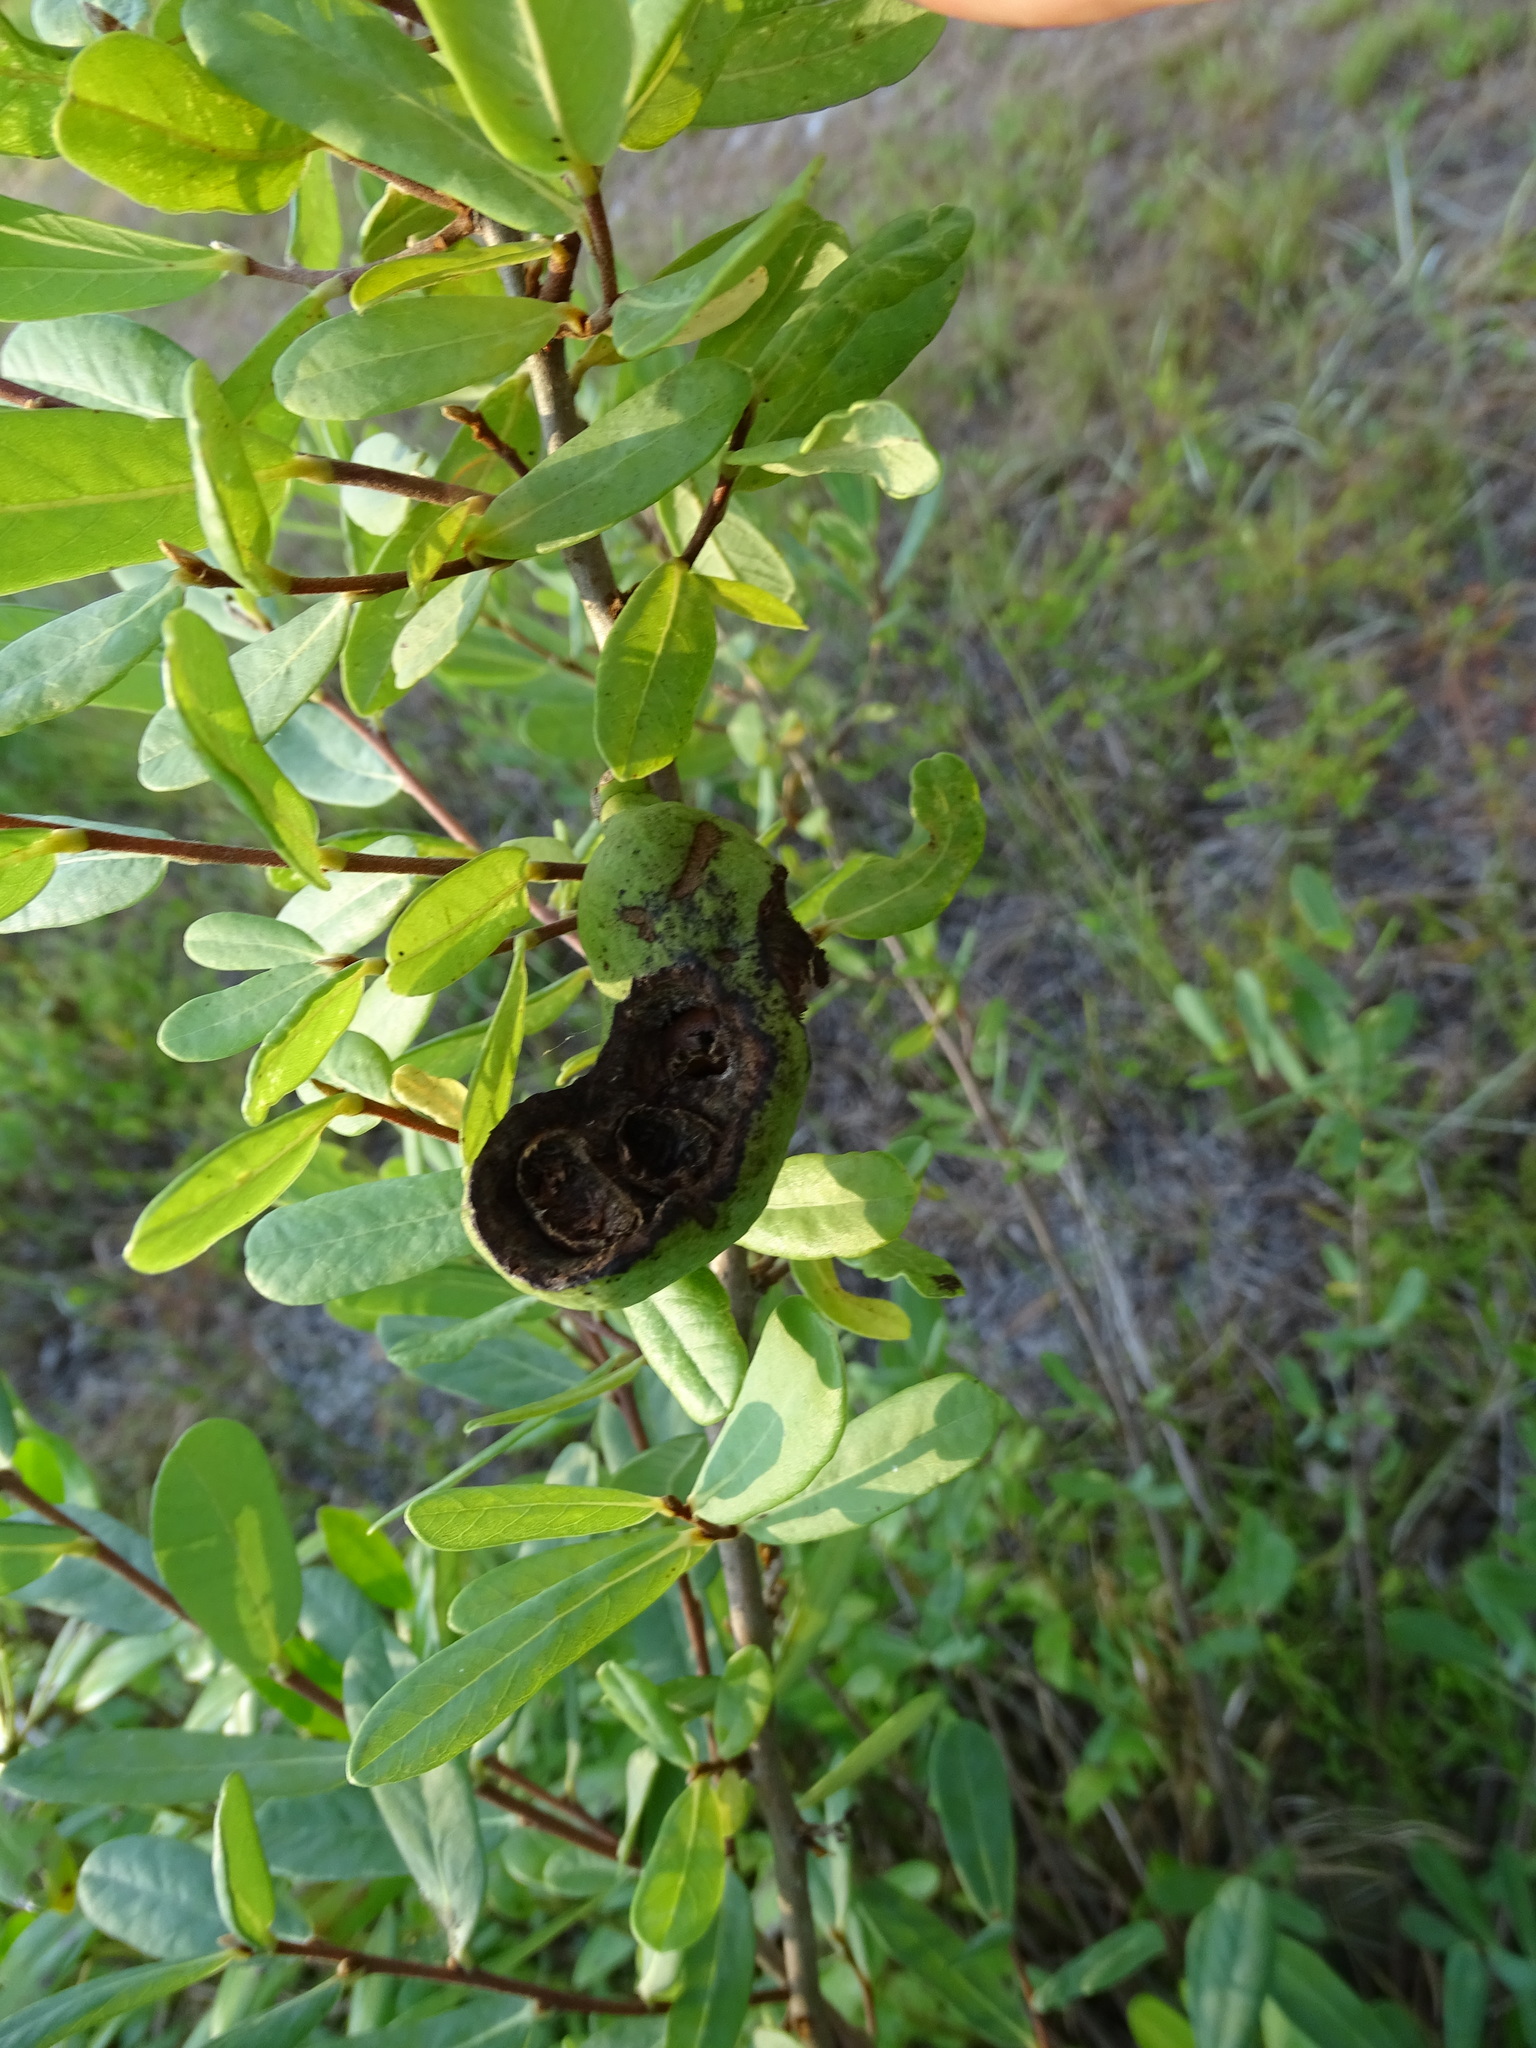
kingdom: Plantae
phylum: Tracheophyta
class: Magnoliopsida
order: Magnoliales
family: Annonaceae
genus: Asimina
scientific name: Asimina reticulata
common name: Flag pawpaw
